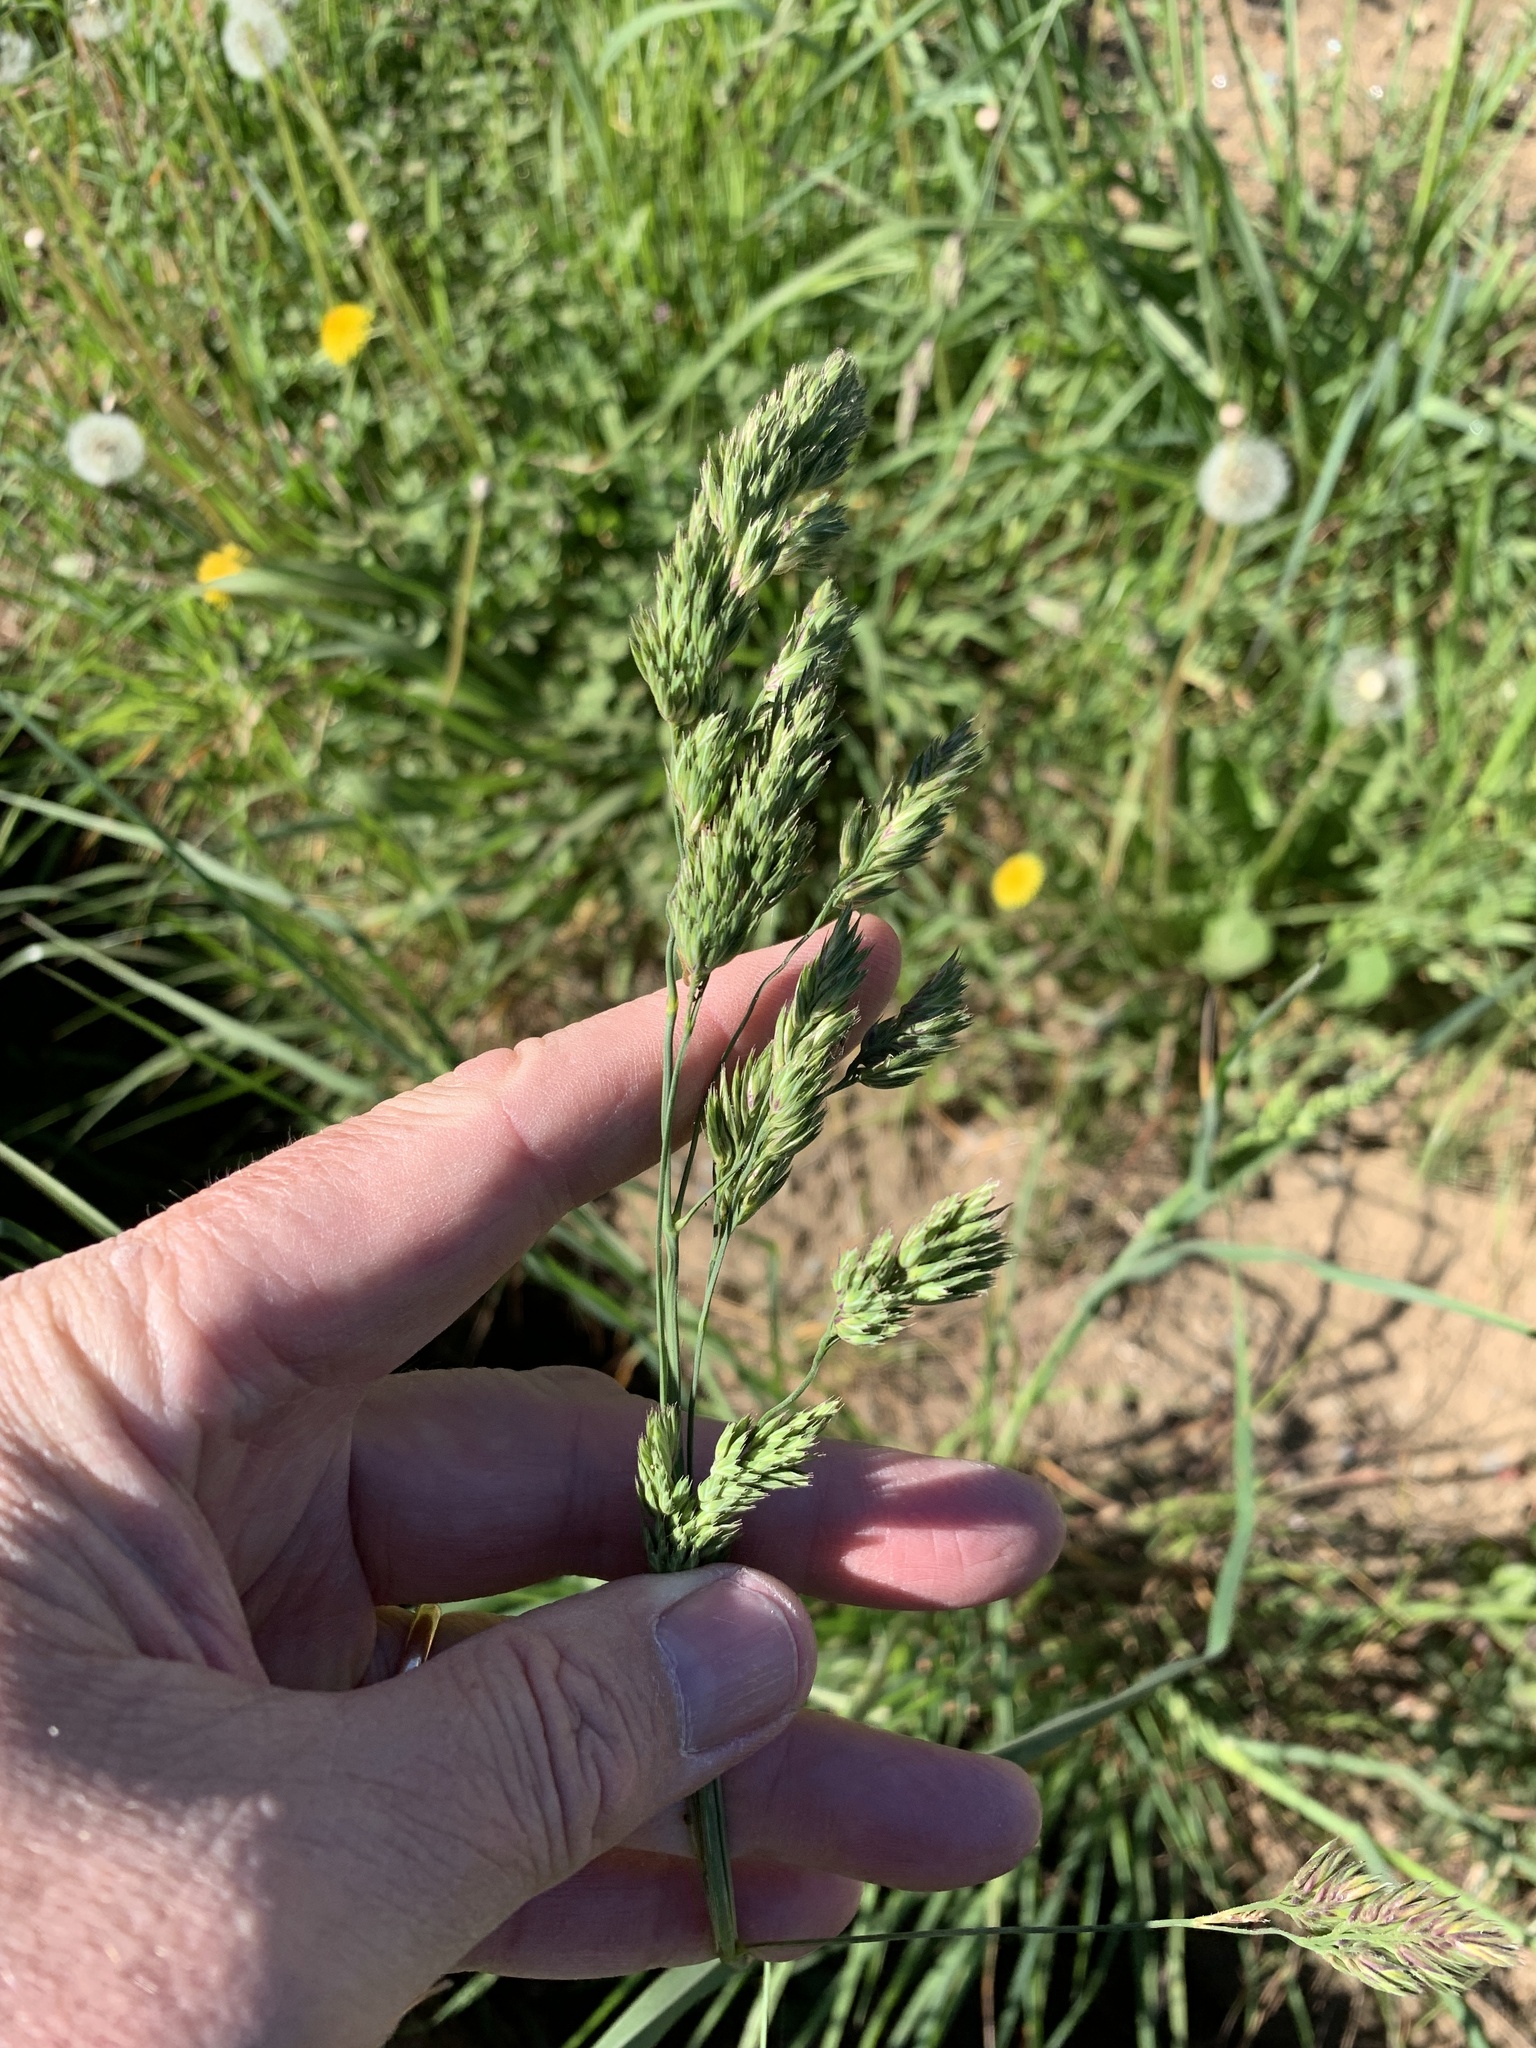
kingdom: Plantae
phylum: Tracheophyta
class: Liliopsida
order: Poales
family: Poaceae
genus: Dactylis
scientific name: Dactylis glomerata
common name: Orchardgrass
